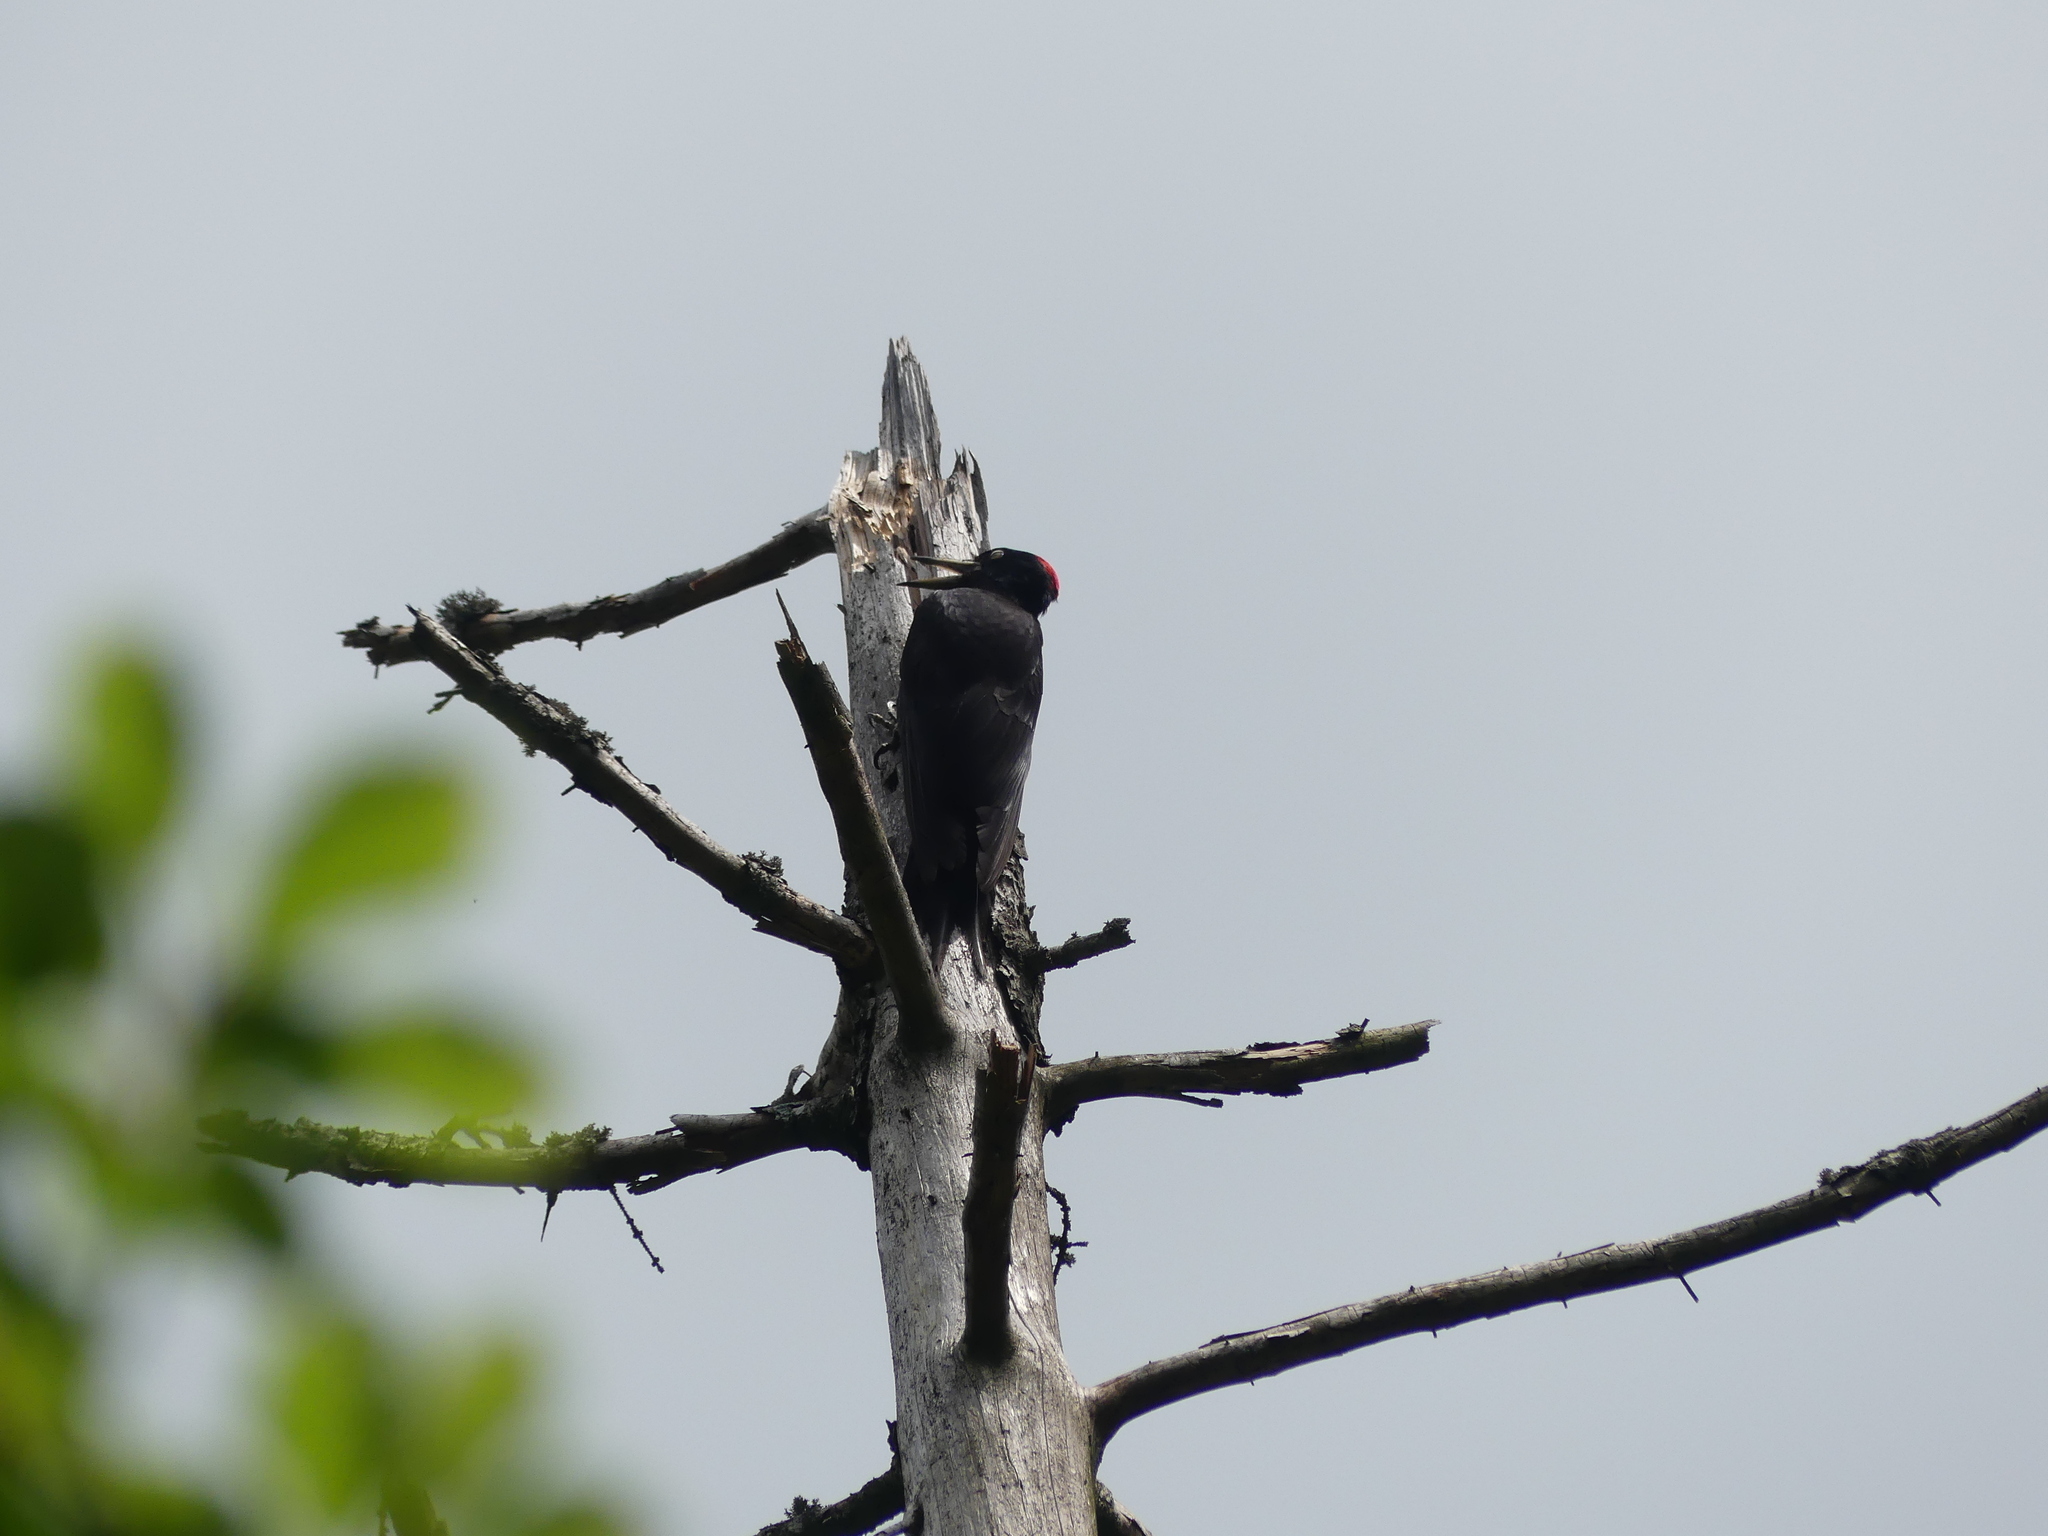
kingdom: Animalia
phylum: Chordata
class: Aves
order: Piciformes
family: Picidae
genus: Dryocopus
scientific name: Dryocopus martius
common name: Black woodpecker
